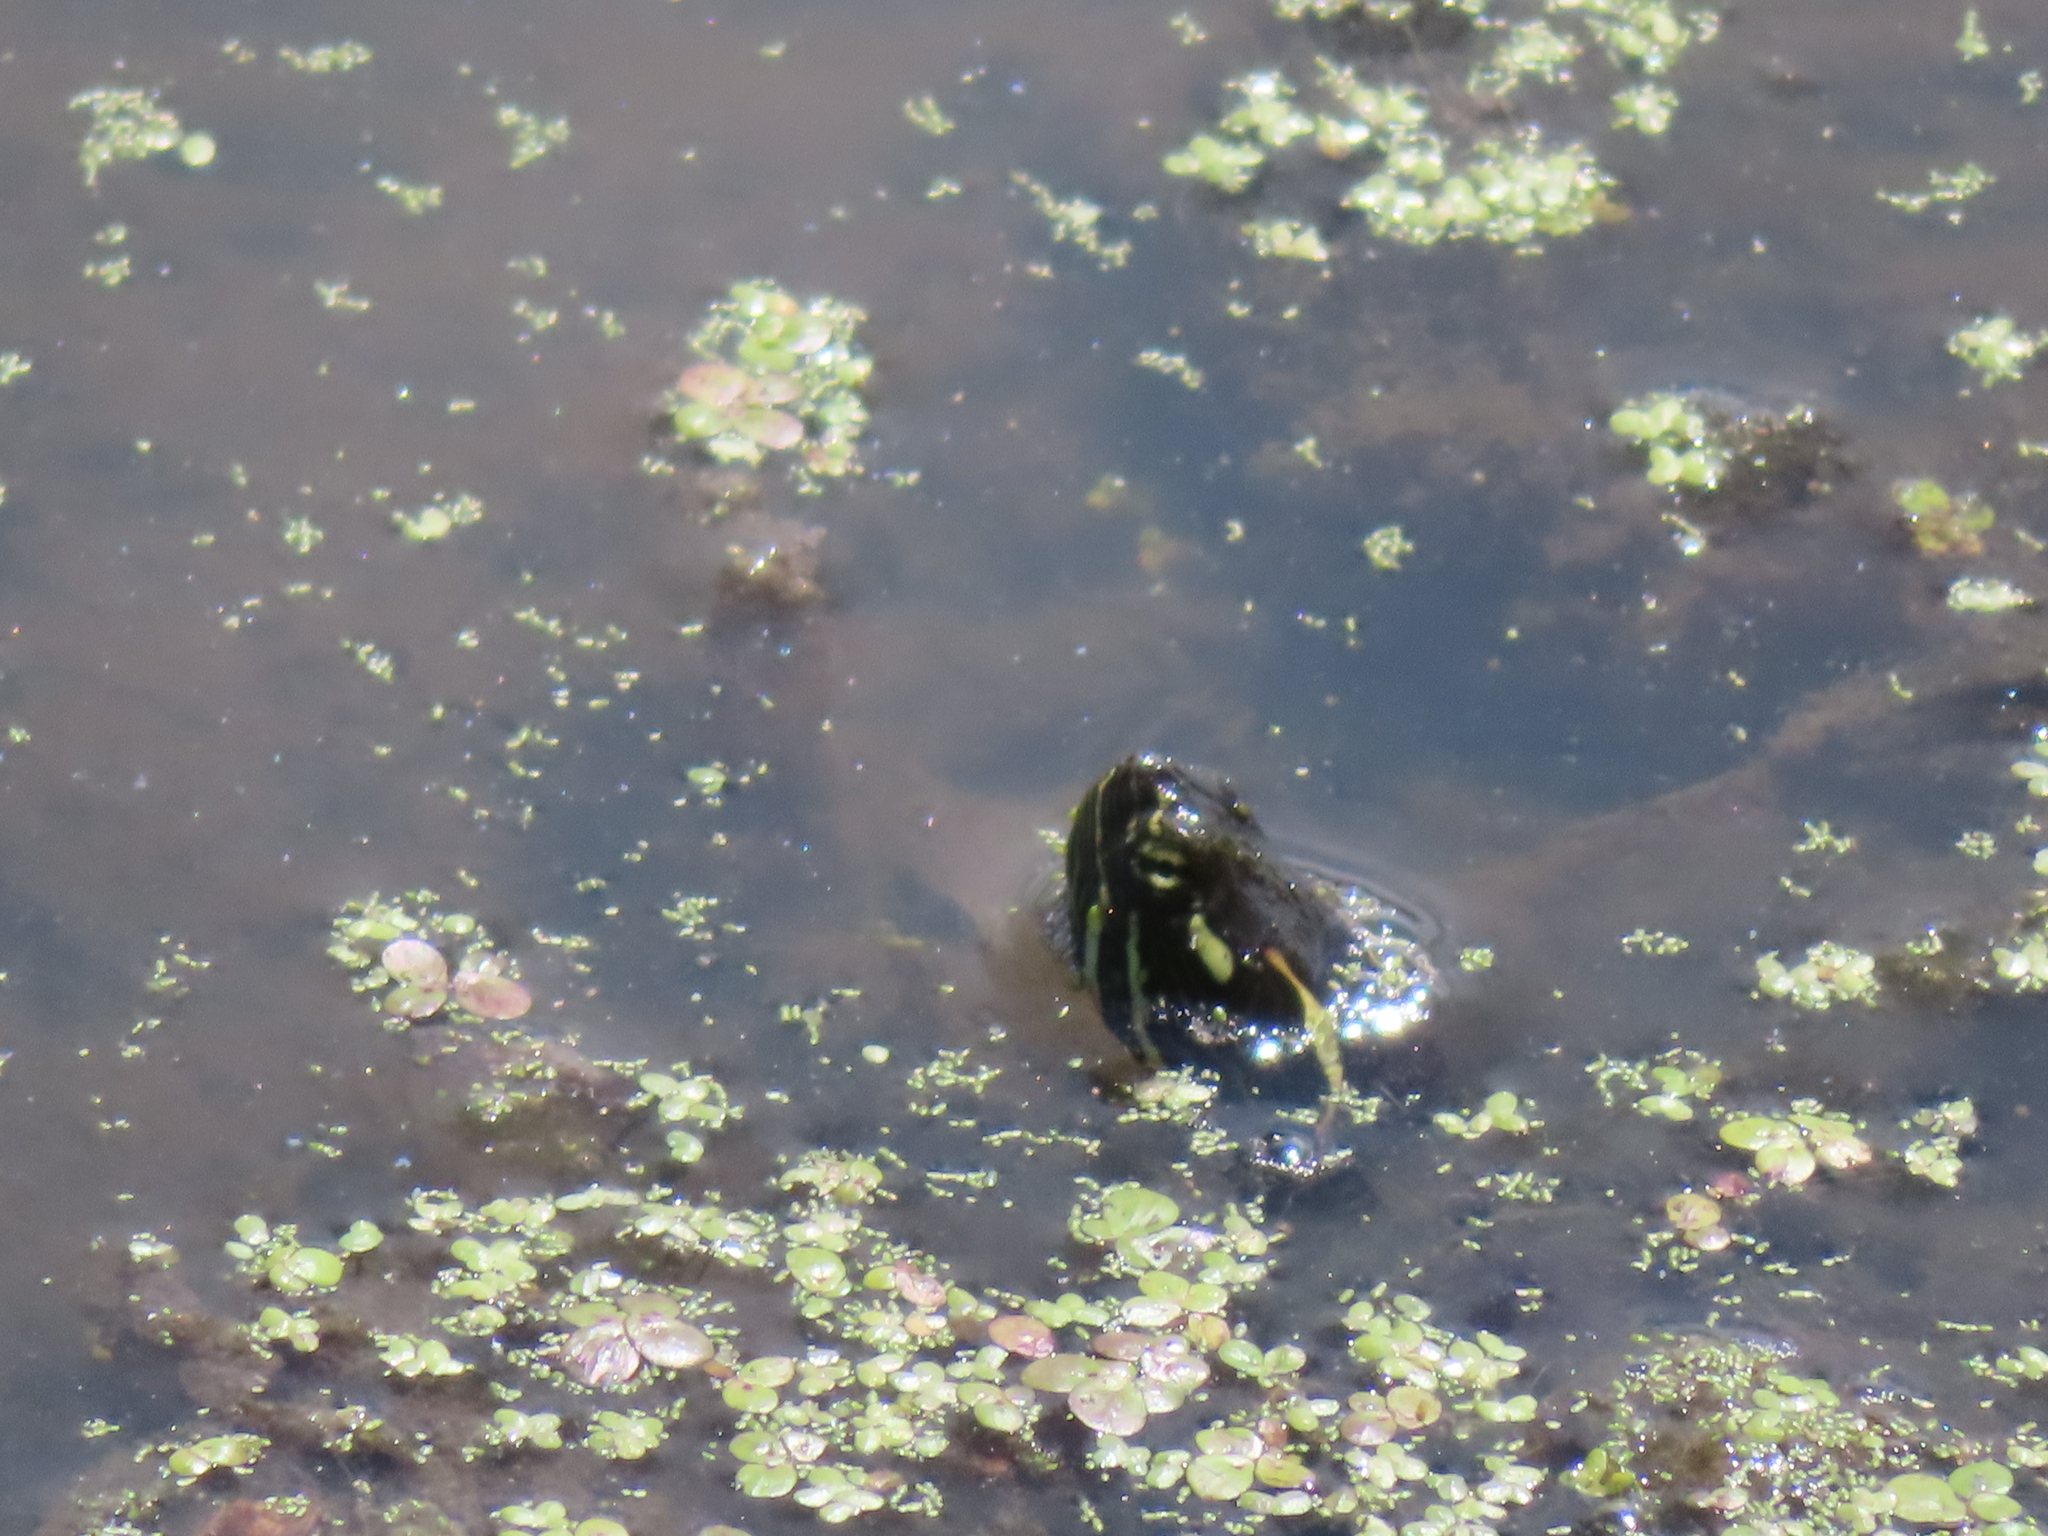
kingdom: Animalia
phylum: Chordata
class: Testudines
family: Emydidae
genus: Chrysemys
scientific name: Chrysemys picta
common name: Painted turtle
